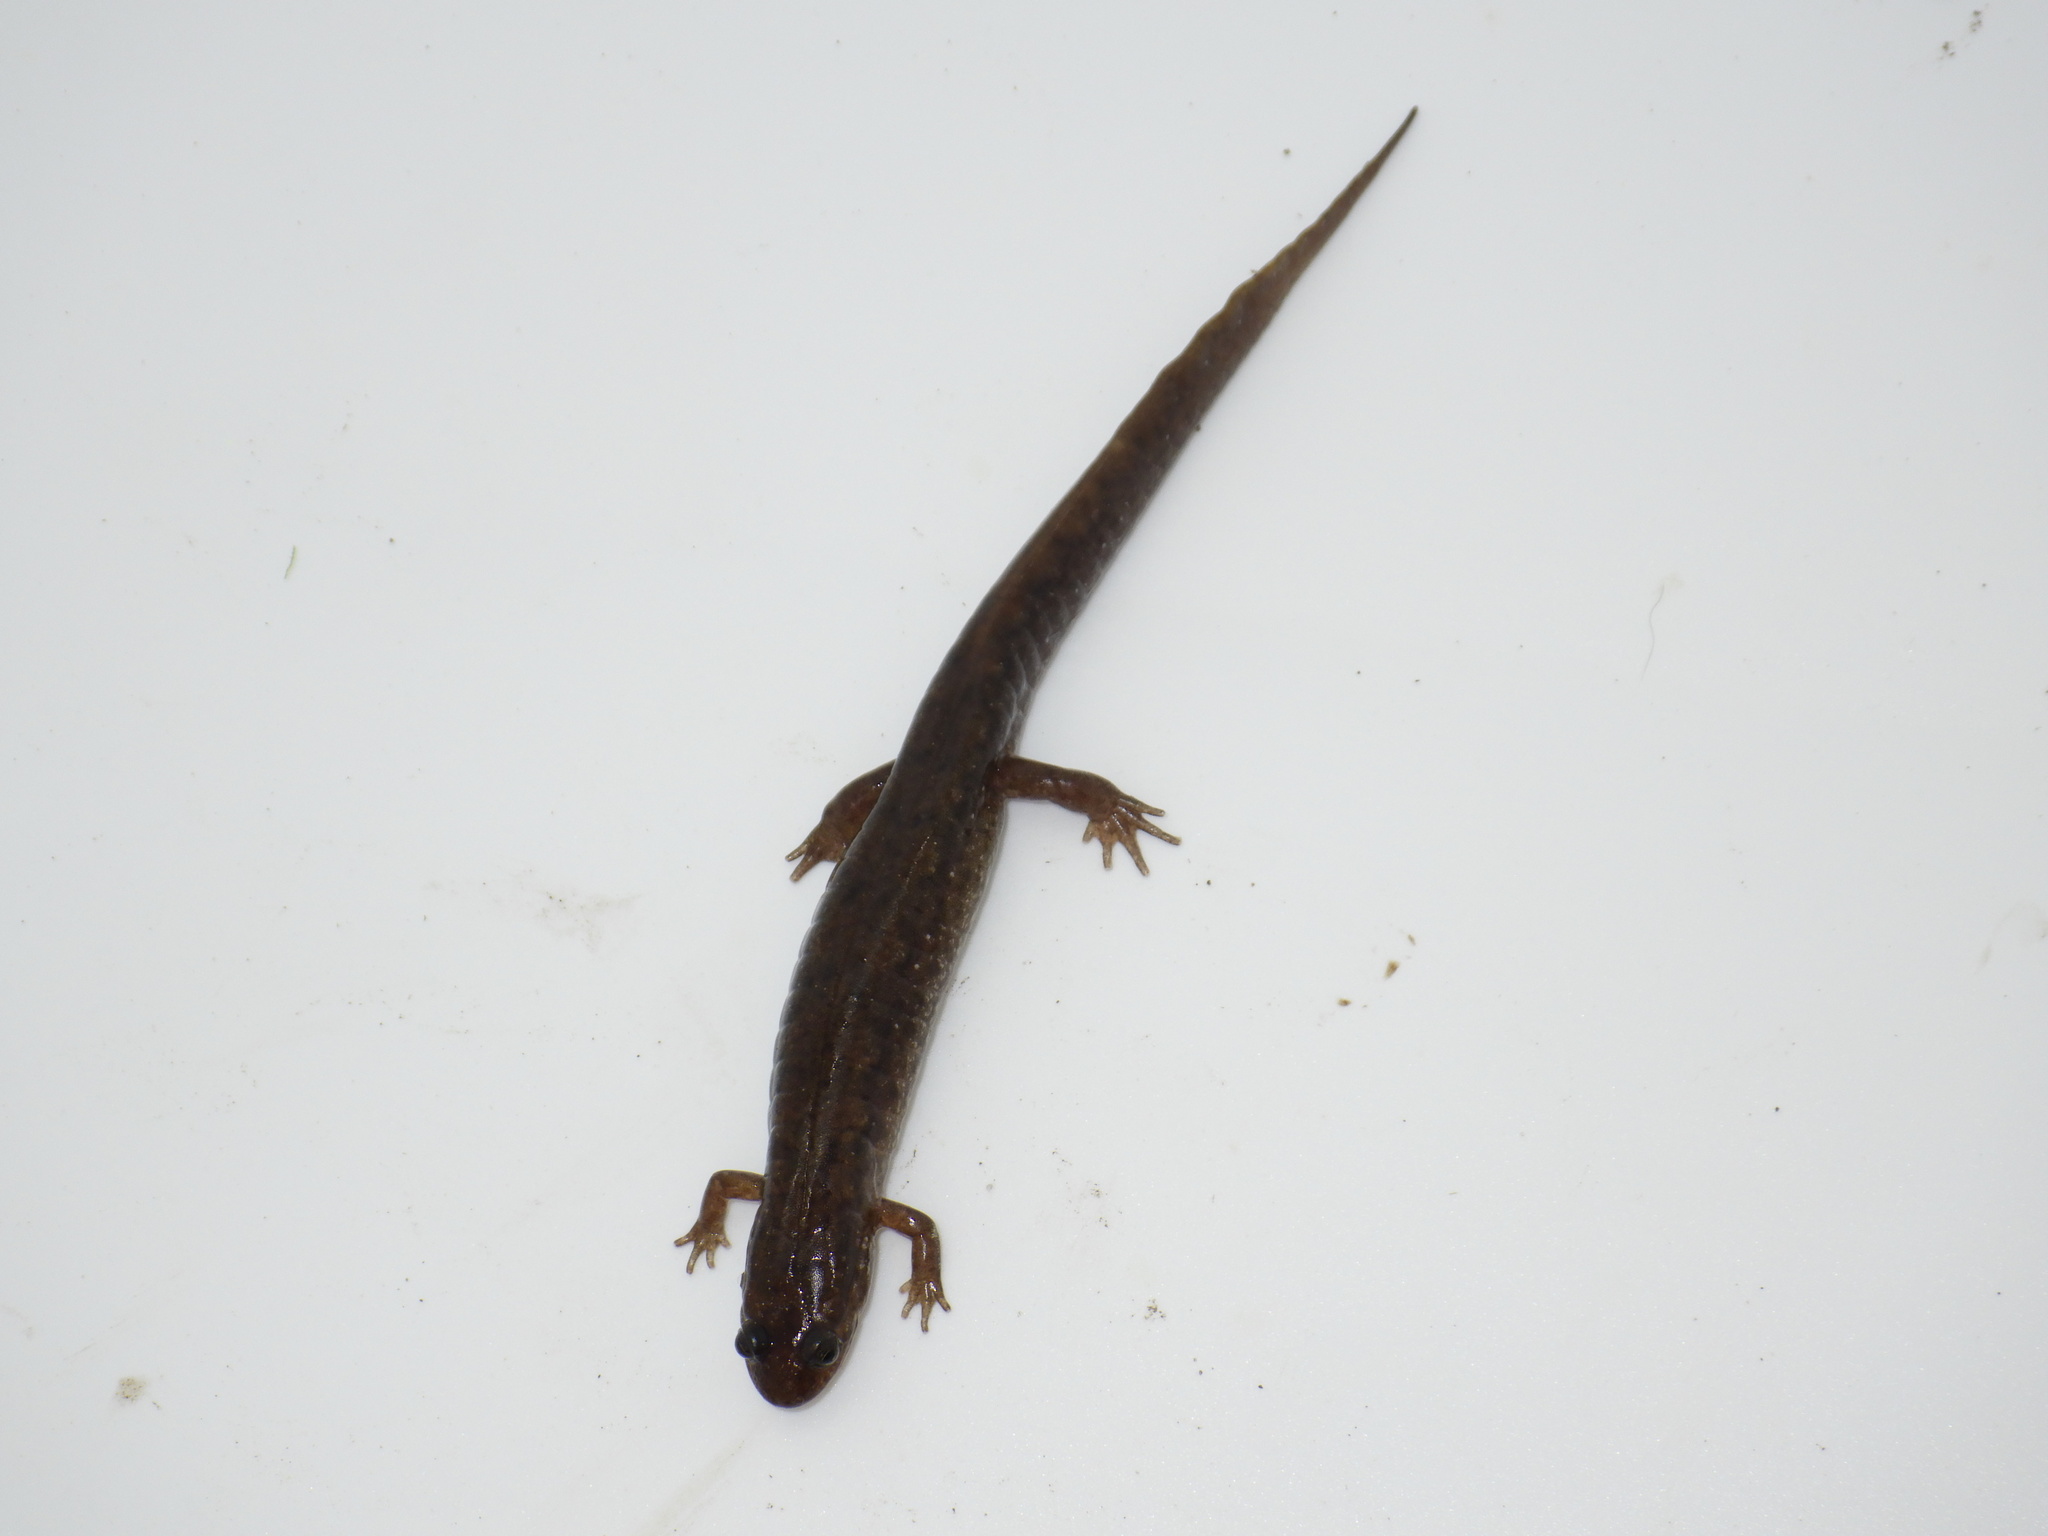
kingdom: Animalia
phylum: Chordata
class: Amphibia
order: Caudata
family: Plethodontidae
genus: Desmognathus
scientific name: Desmognathus
